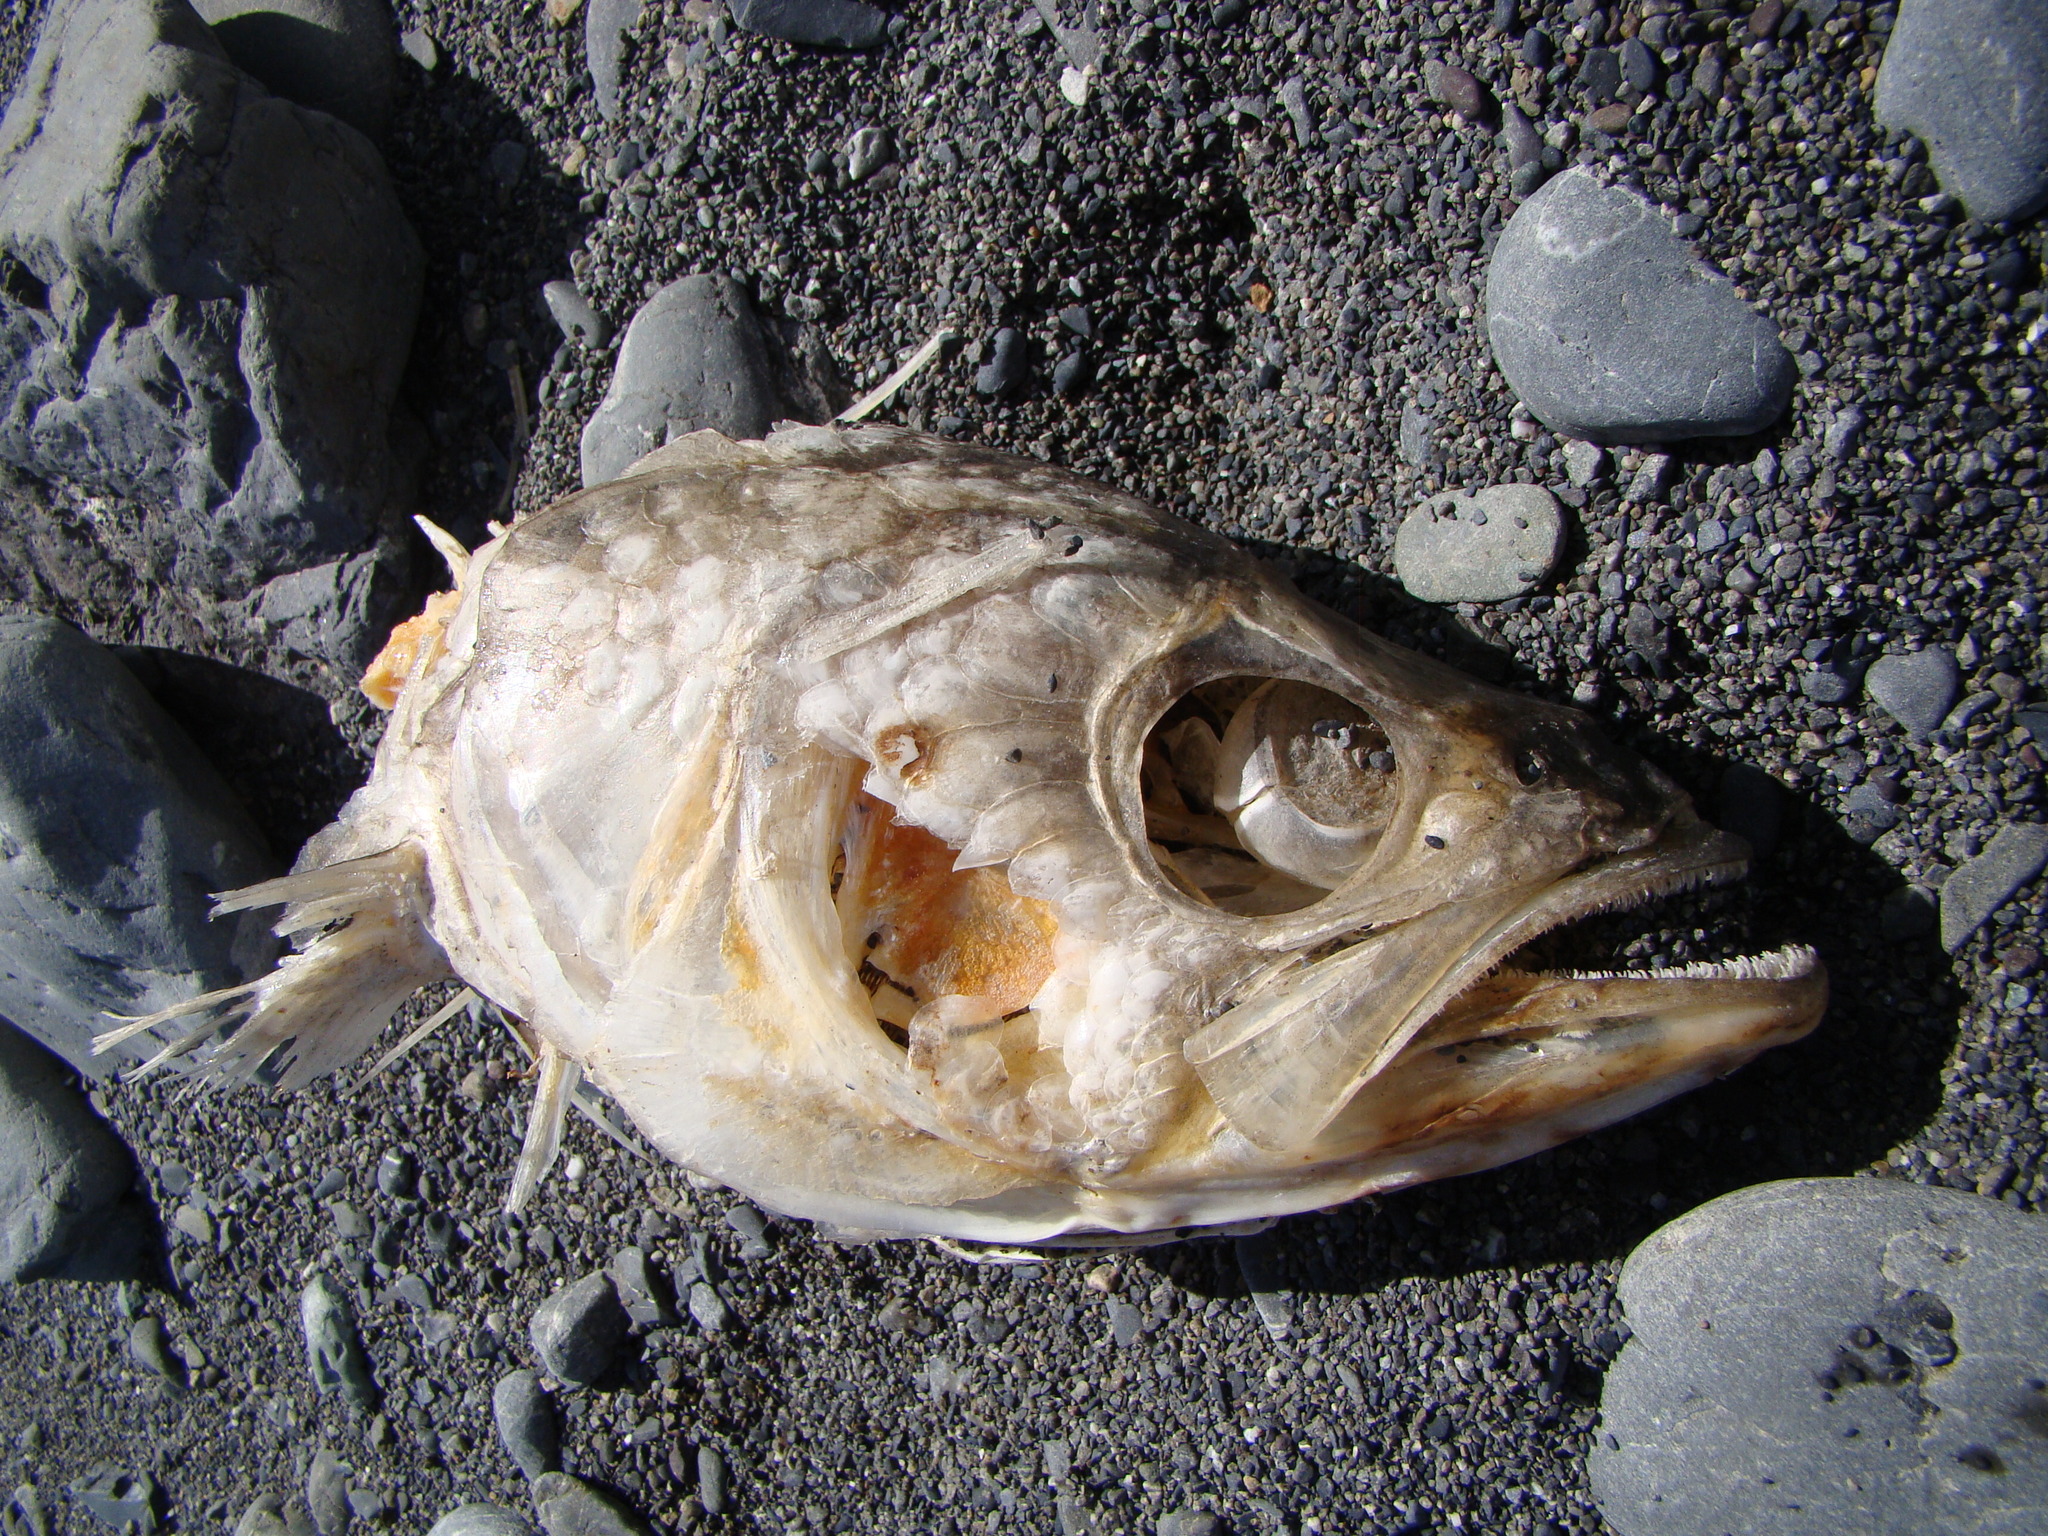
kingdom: Animalia
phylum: Chordata
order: Perciformes
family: Arripidae
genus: Arripis
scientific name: Arripis trutta
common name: Kahawai
